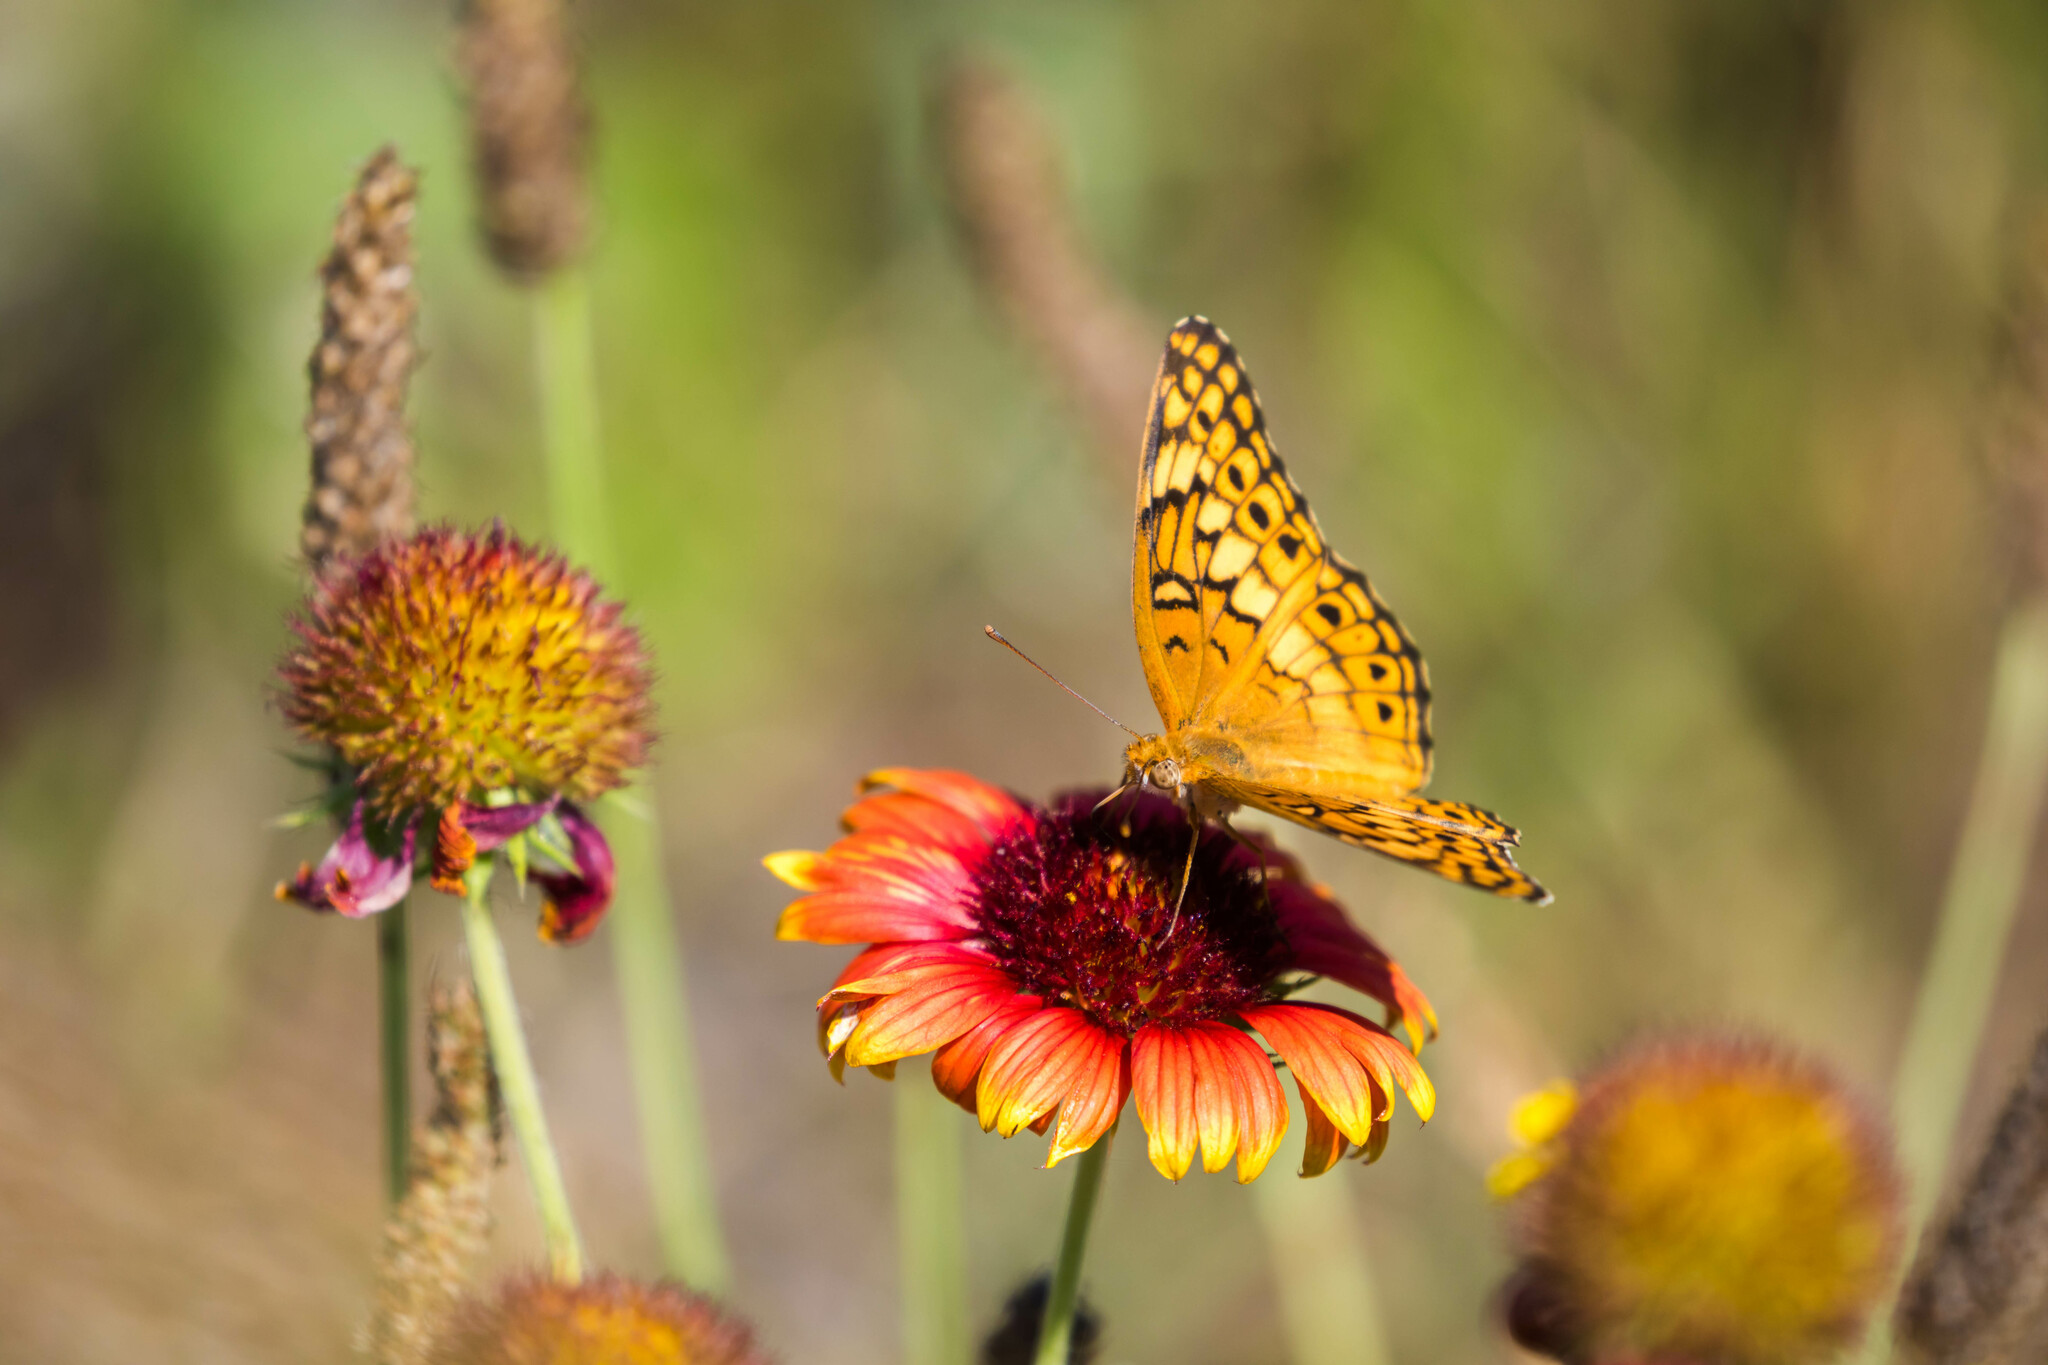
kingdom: Animalia
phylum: Arthropoda
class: Insecta
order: Lepidoptera
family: Nymphalidae
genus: Euptoieta
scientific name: Euptoieta claudia
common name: Variegated fritillary
